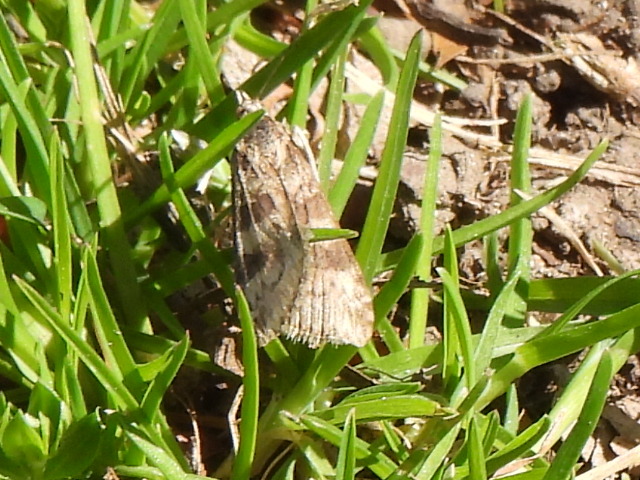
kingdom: Animalia
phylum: Arthropoda
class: Insecta
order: Lepidoptera
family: Crambidae
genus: Nomophila
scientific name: Nomophila nearctica
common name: American rush veneer
